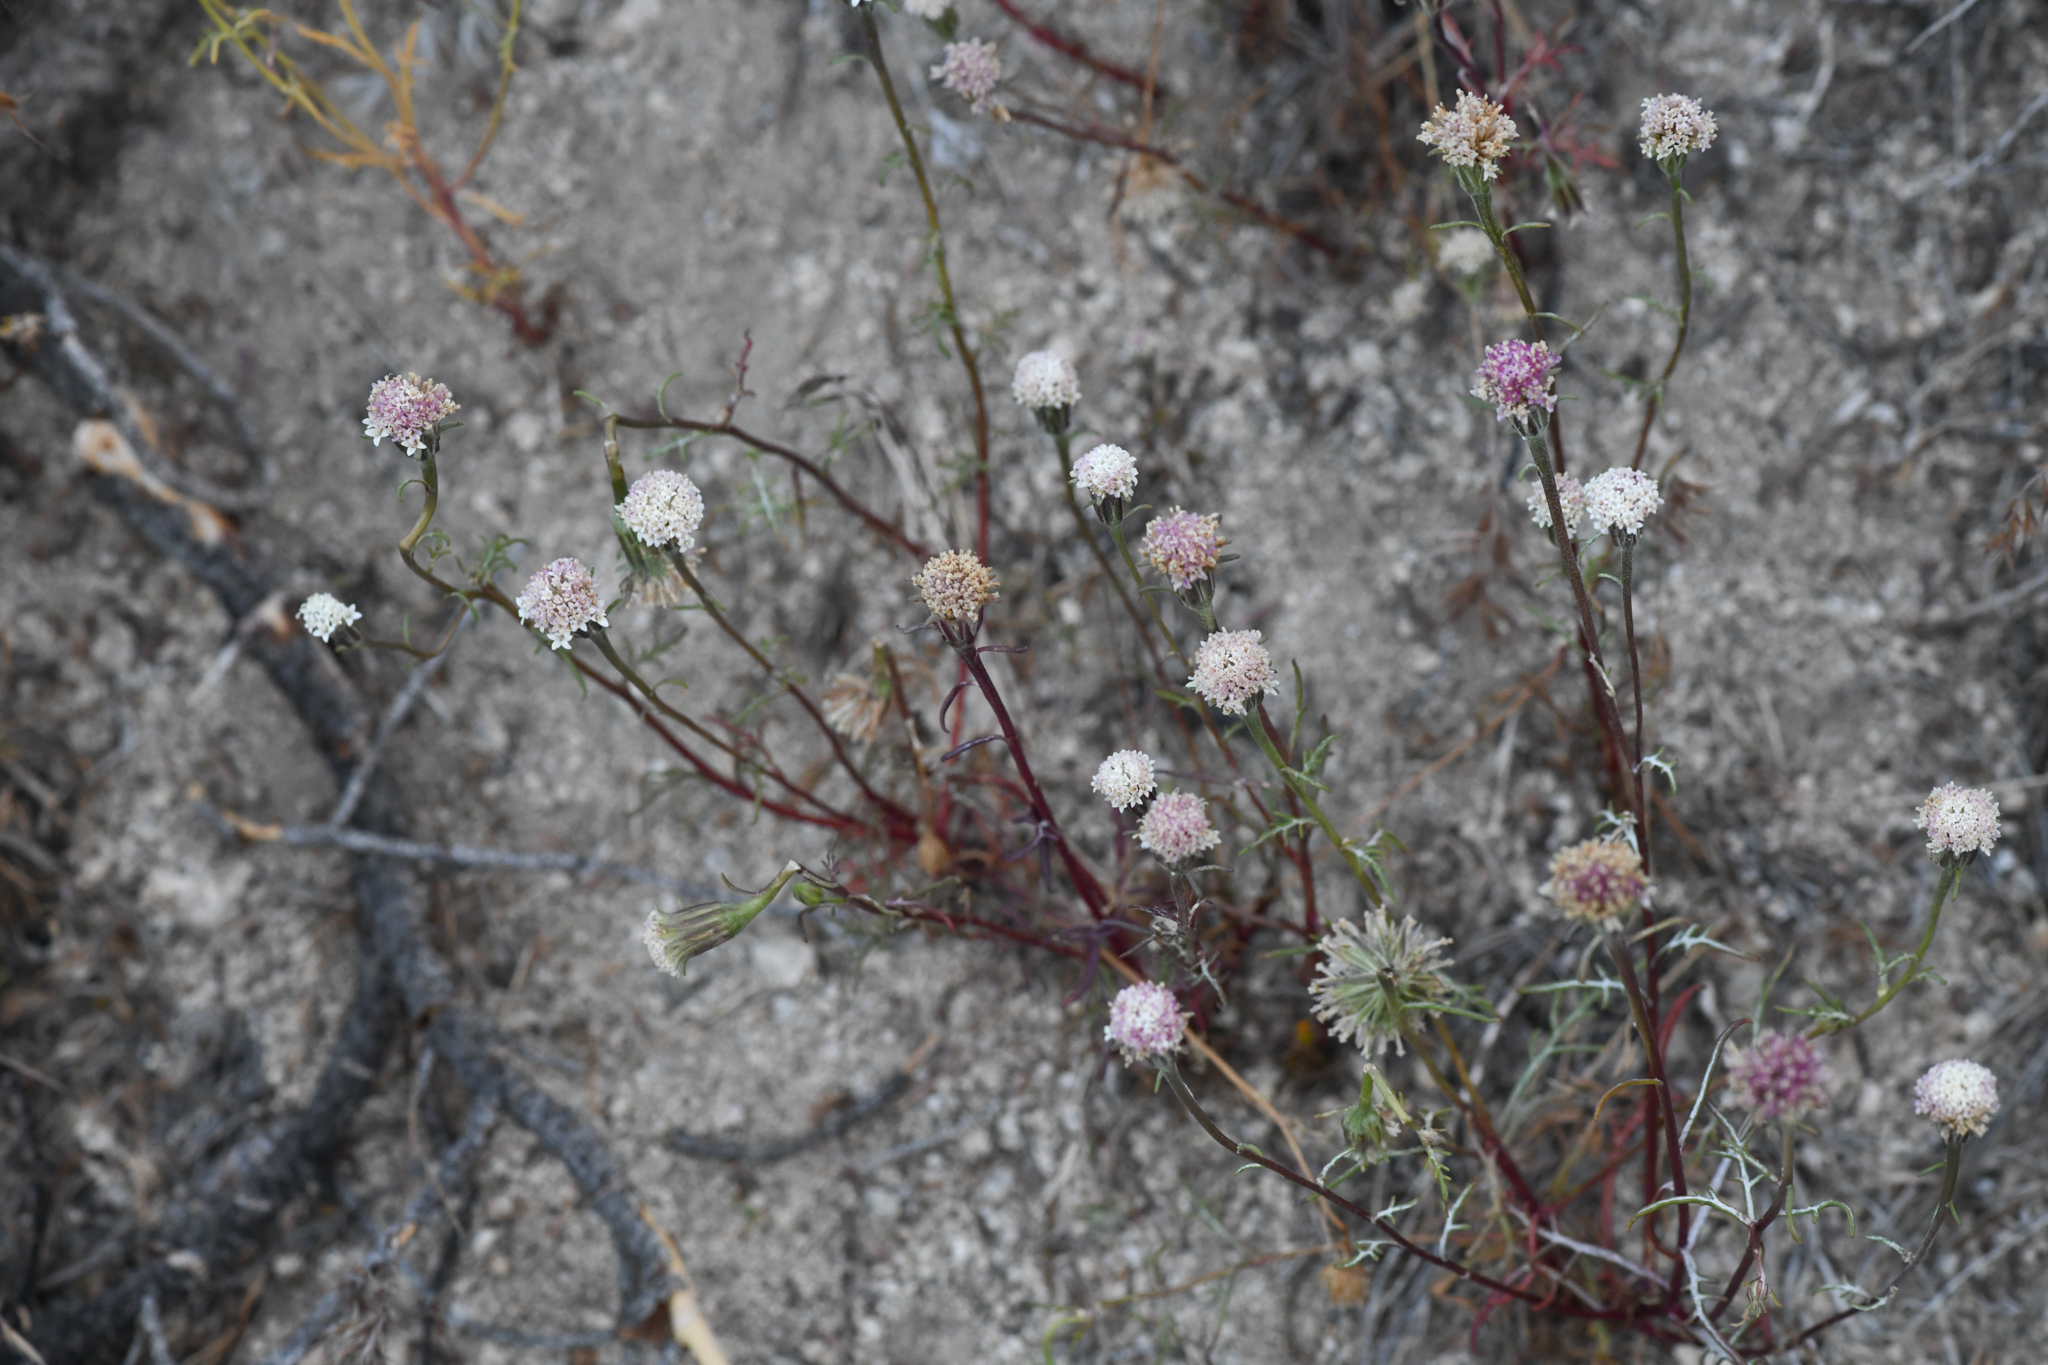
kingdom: Plantae
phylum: Tracheophyta
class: Magnoliopsida
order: Asterales
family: Asteraceae
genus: Chaenactis
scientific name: Chaenactis xantiana
